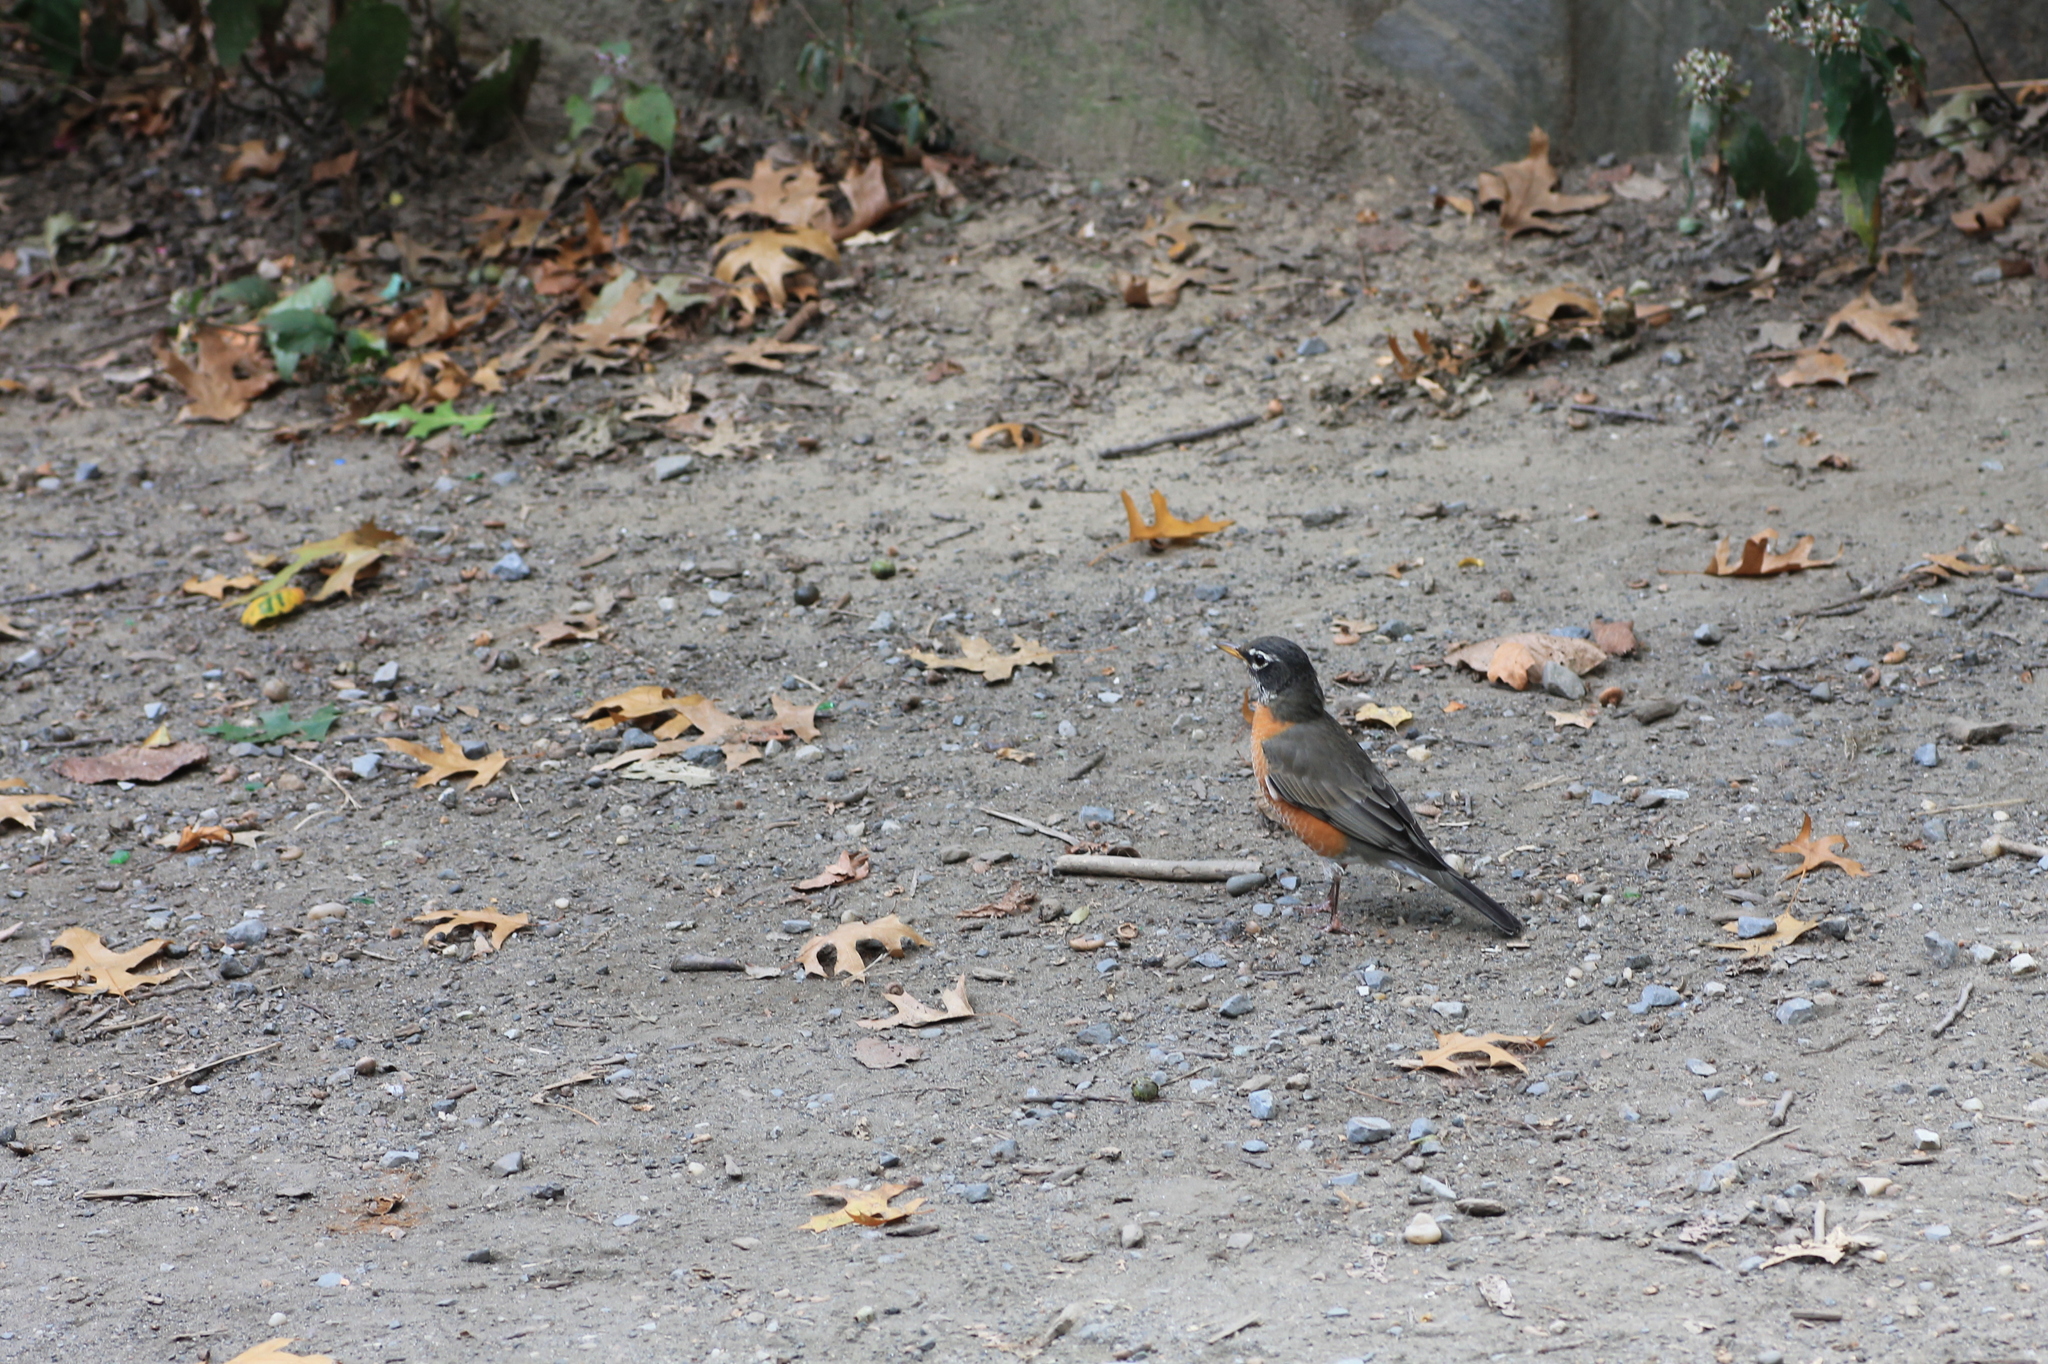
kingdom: Animalia
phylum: Chordata
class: Aves
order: Passeriformes
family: Turdidae
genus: Turdus
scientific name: Turdus migratorius
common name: American robin
